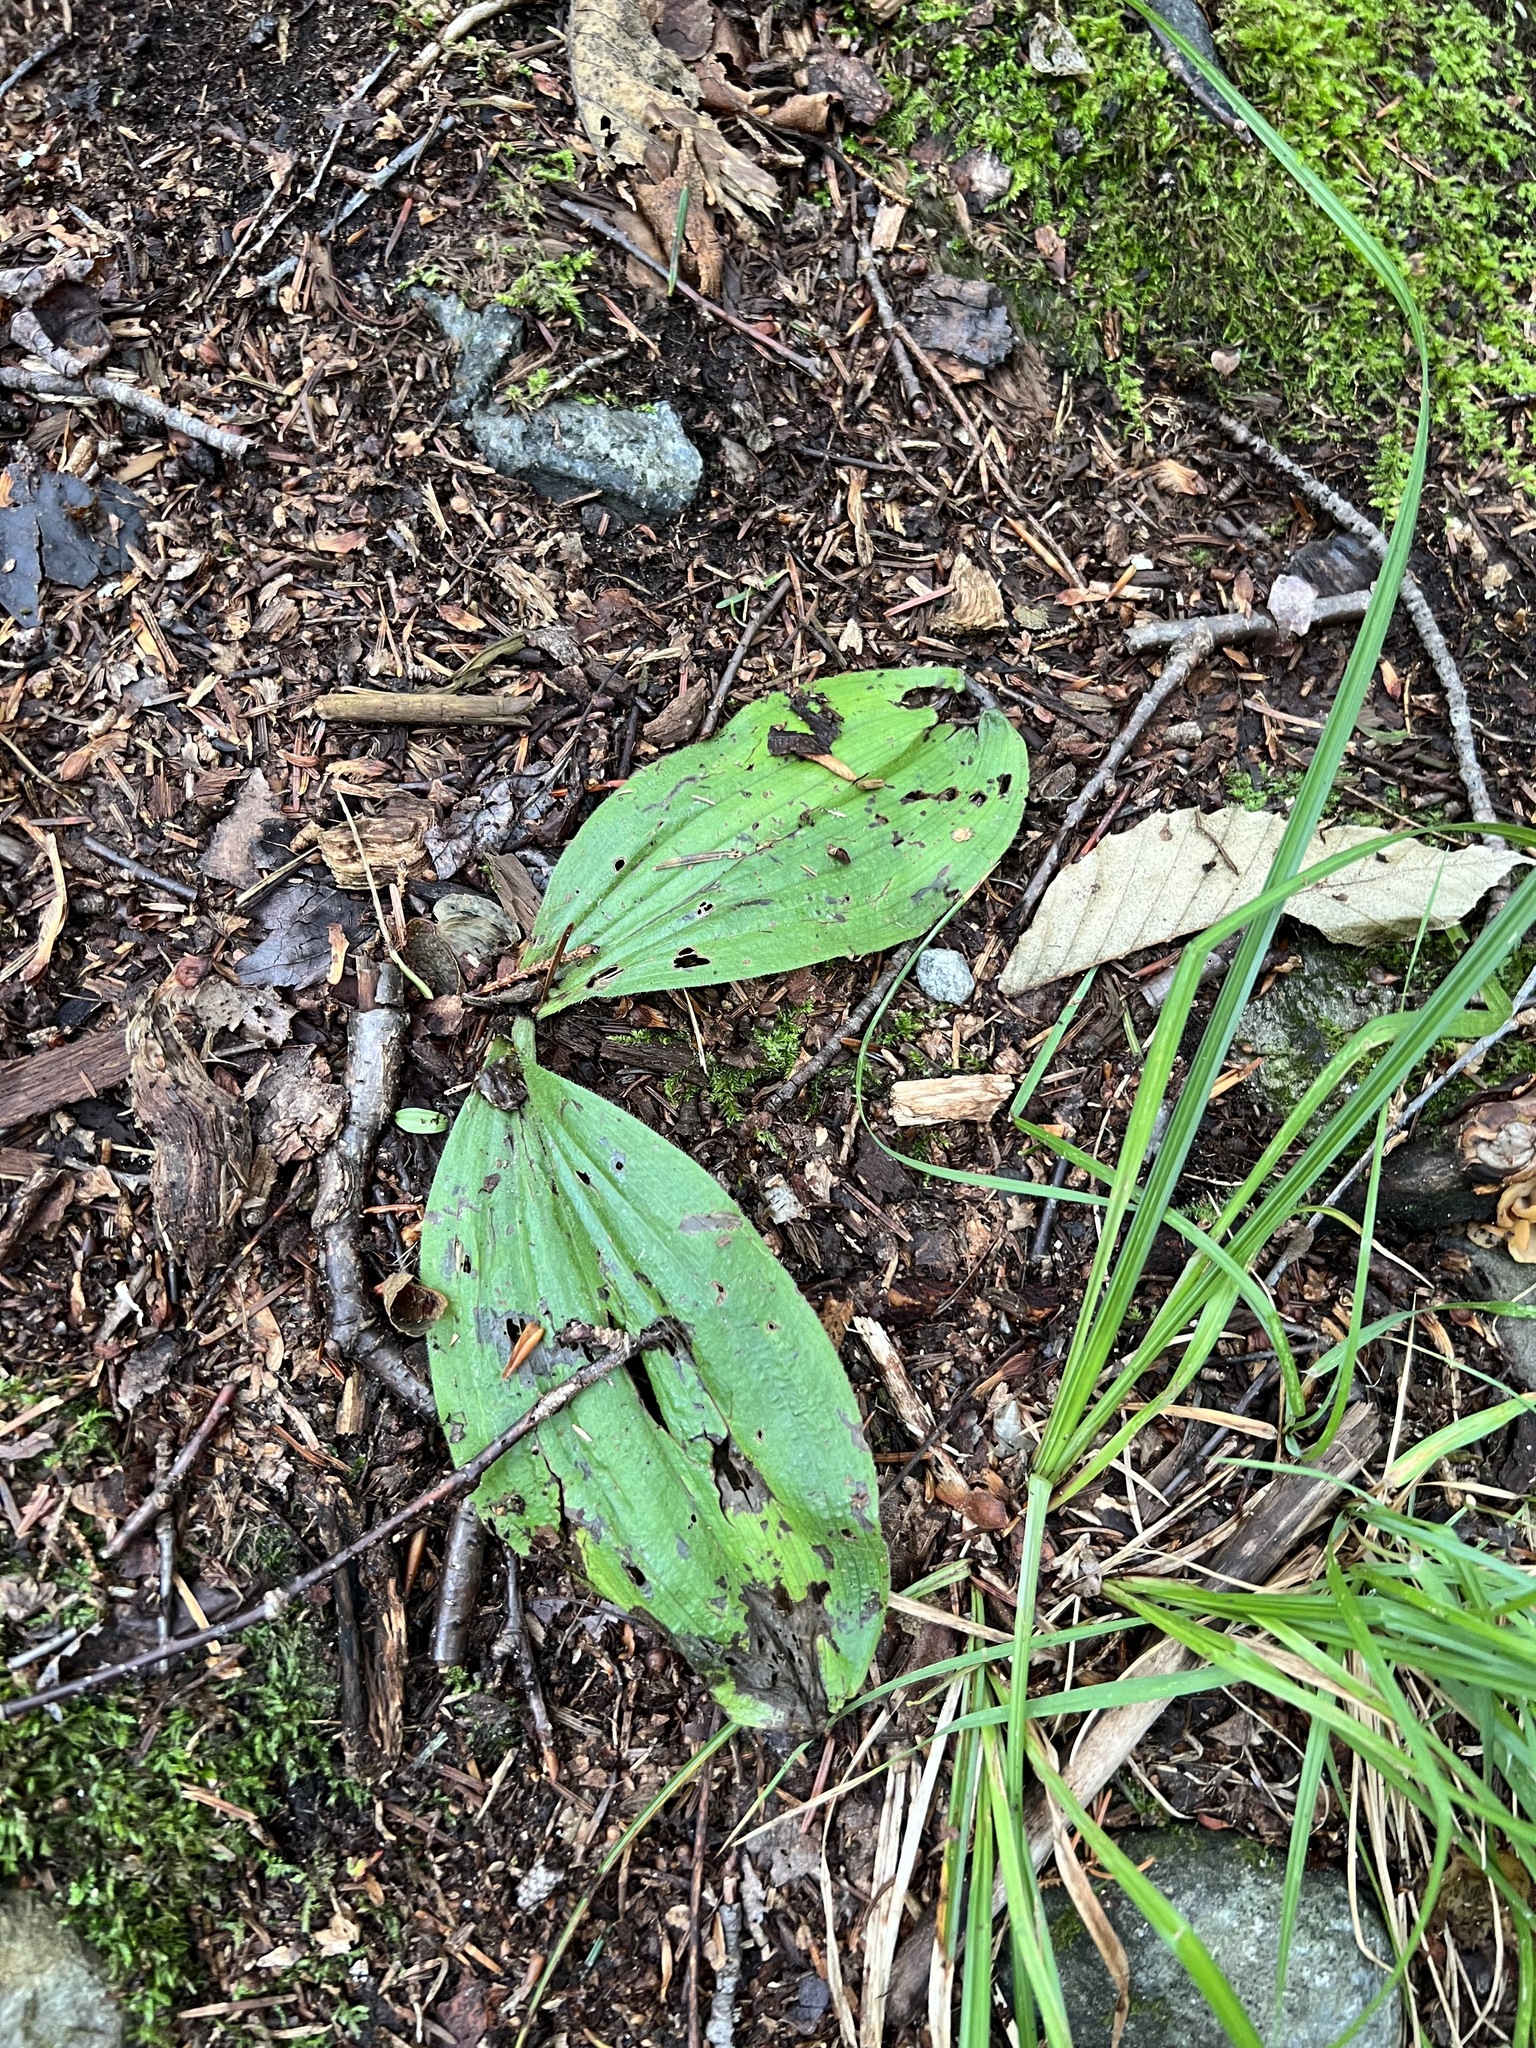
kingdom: Plantae
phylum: Tracheophyta
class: Liliopsida
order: Asparagales
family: Orchidaceae
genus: Cypripedium
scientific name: Cypripedium acaule
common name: Pink lady's-slipper
